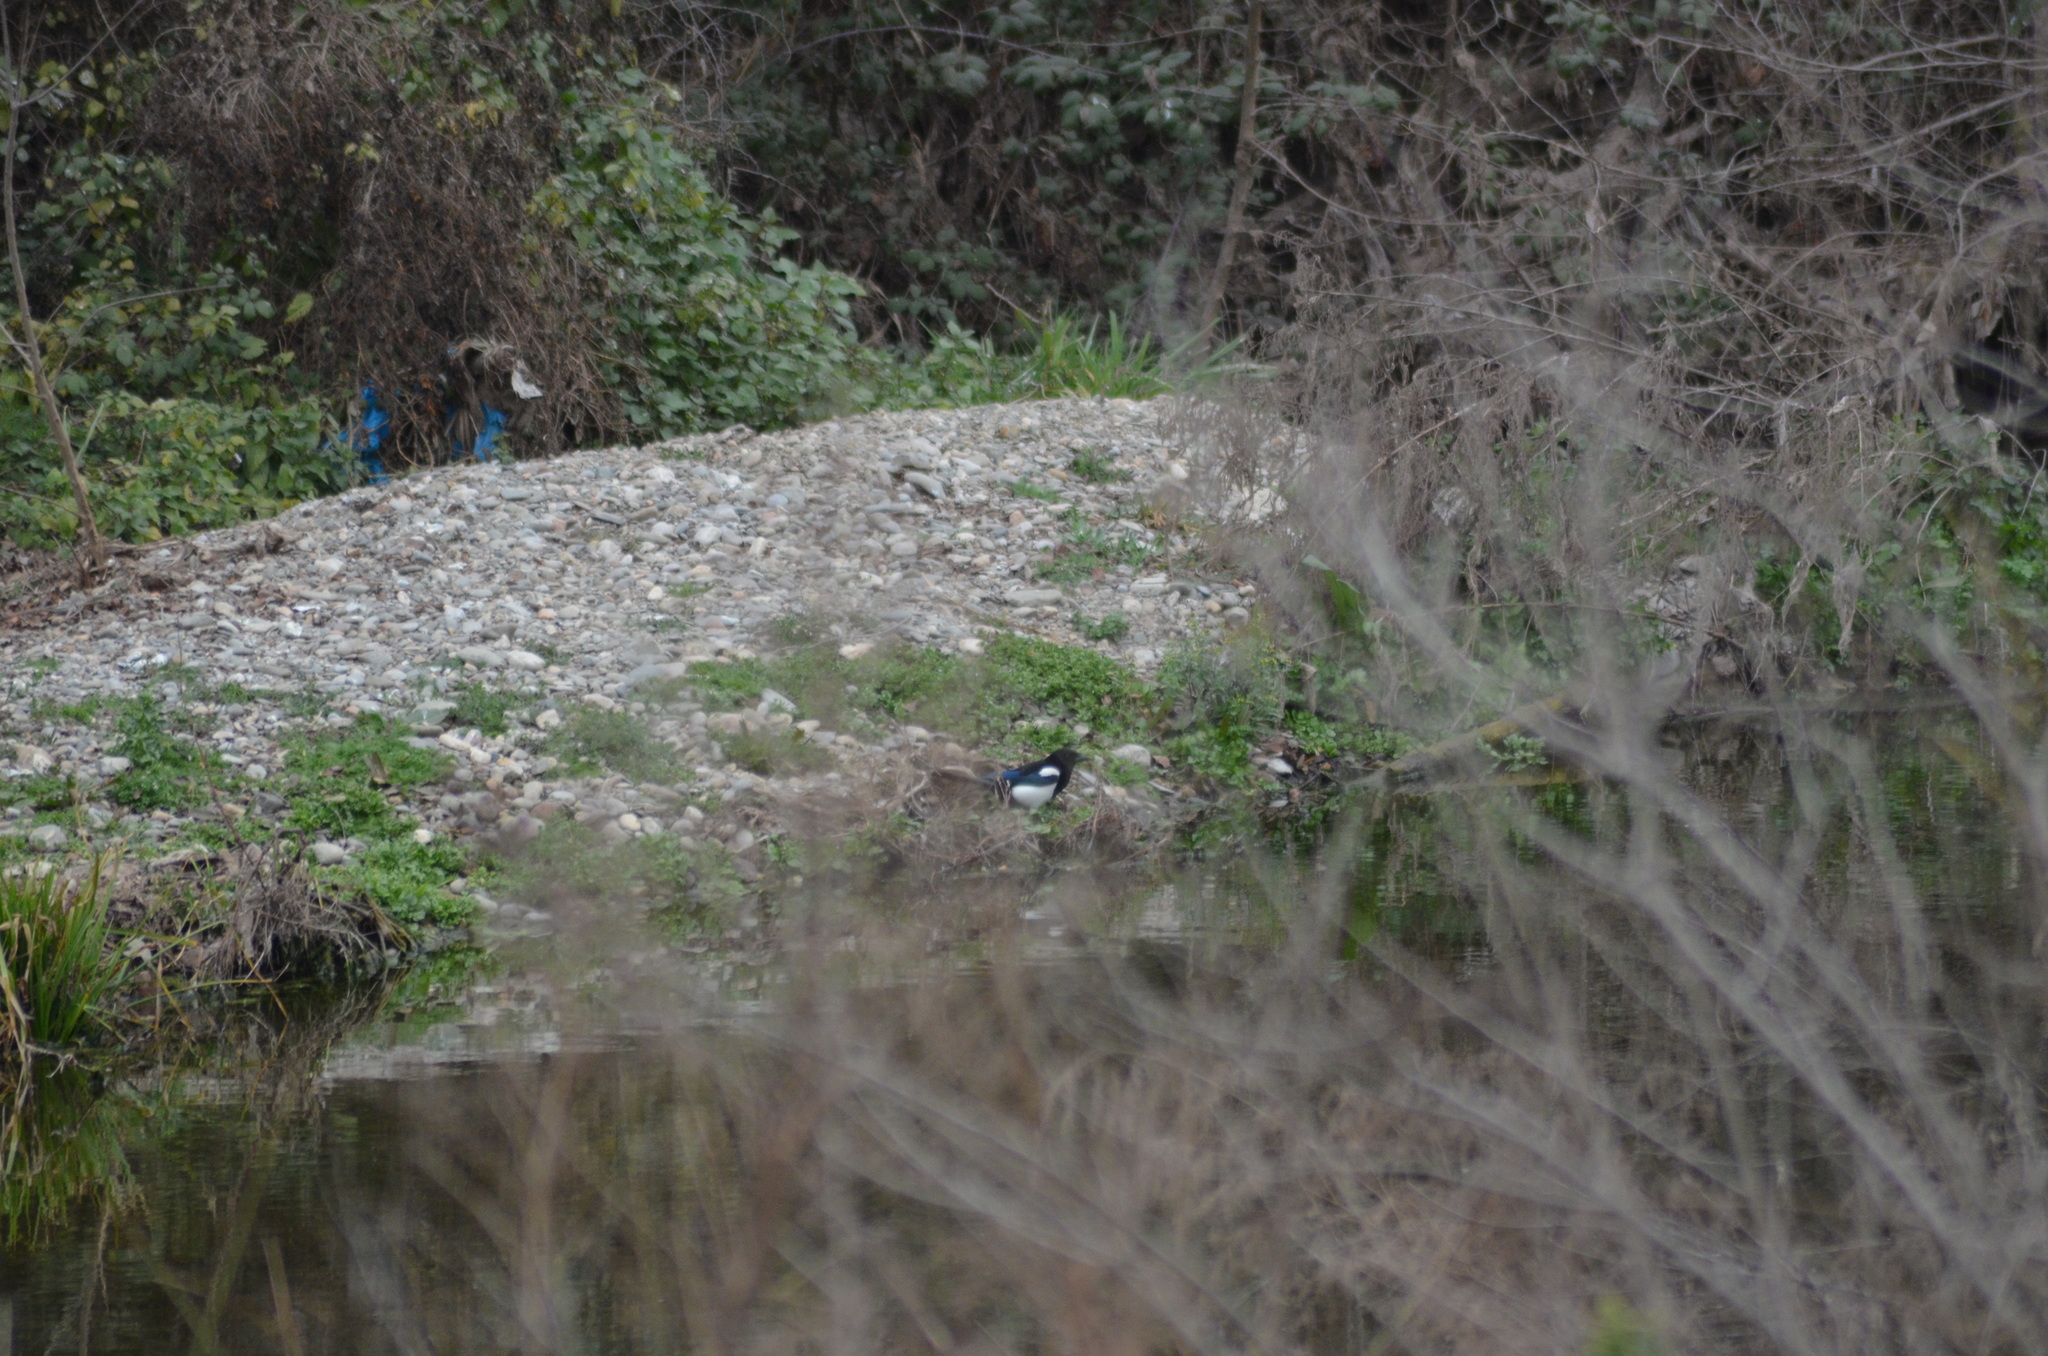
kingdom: Animalia
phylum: Chordata
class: Aves
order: Passeriformes
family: Corvidae
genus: Pica
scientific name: Pica pica
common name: Eurasian magpie
